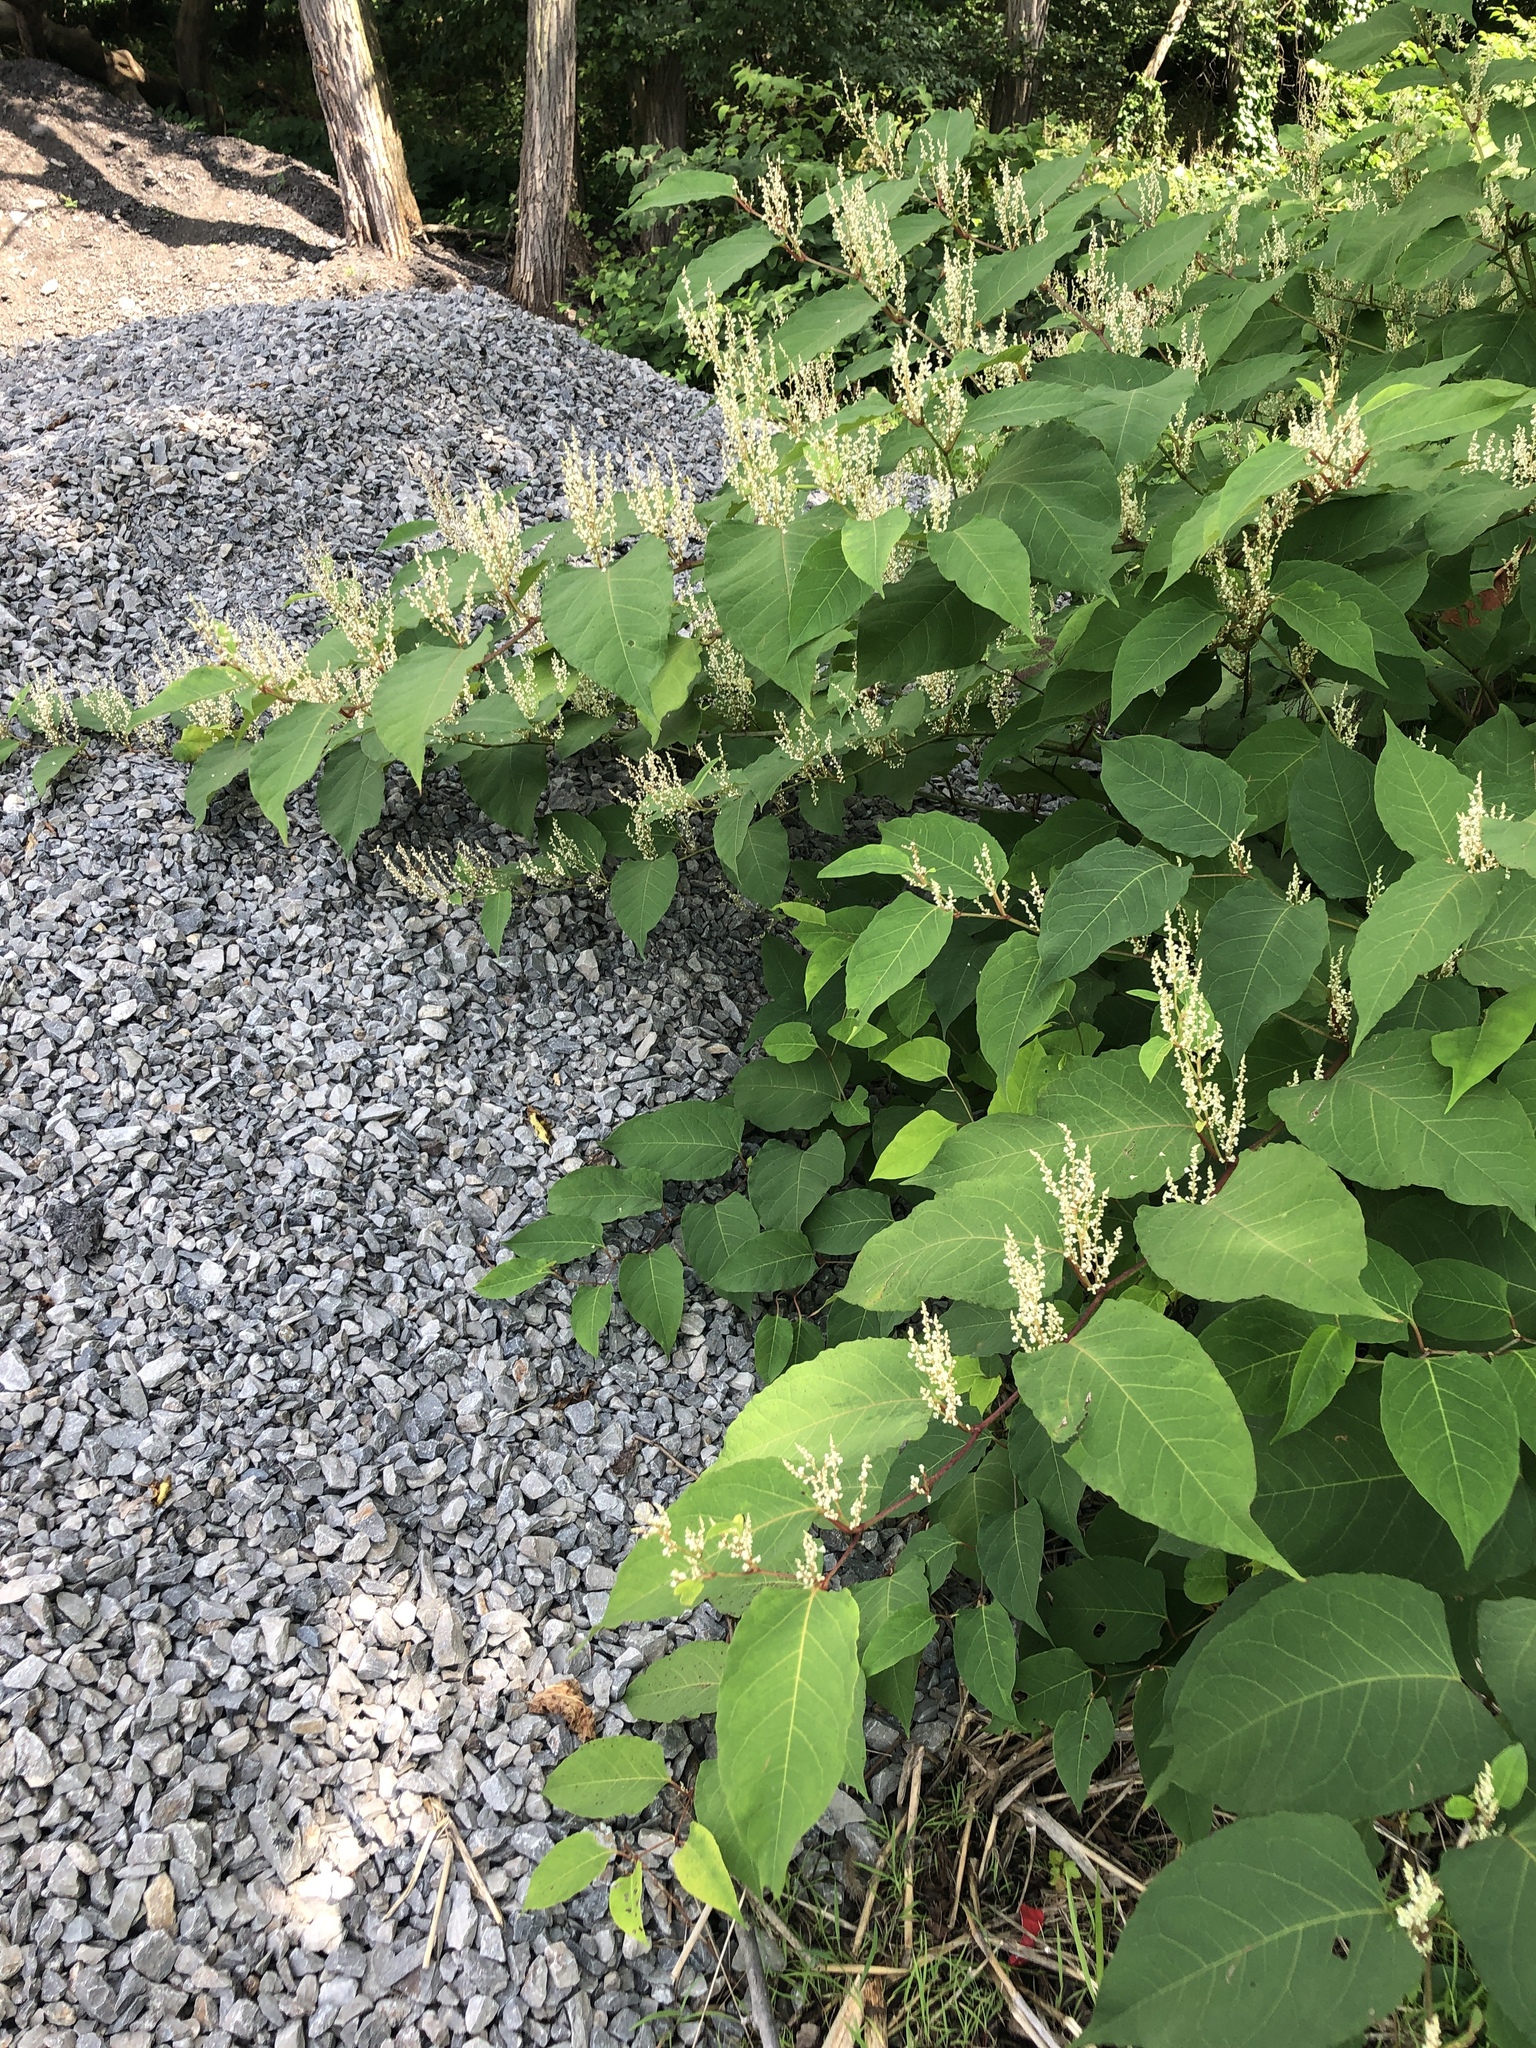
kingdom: Plantae
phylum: Tracheophyta
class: Magnoliopsida
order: Caryophyllales
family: Polygonaceae
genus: Reynoutria
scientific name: Reynoutria japonica
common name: Japanese knotweed
